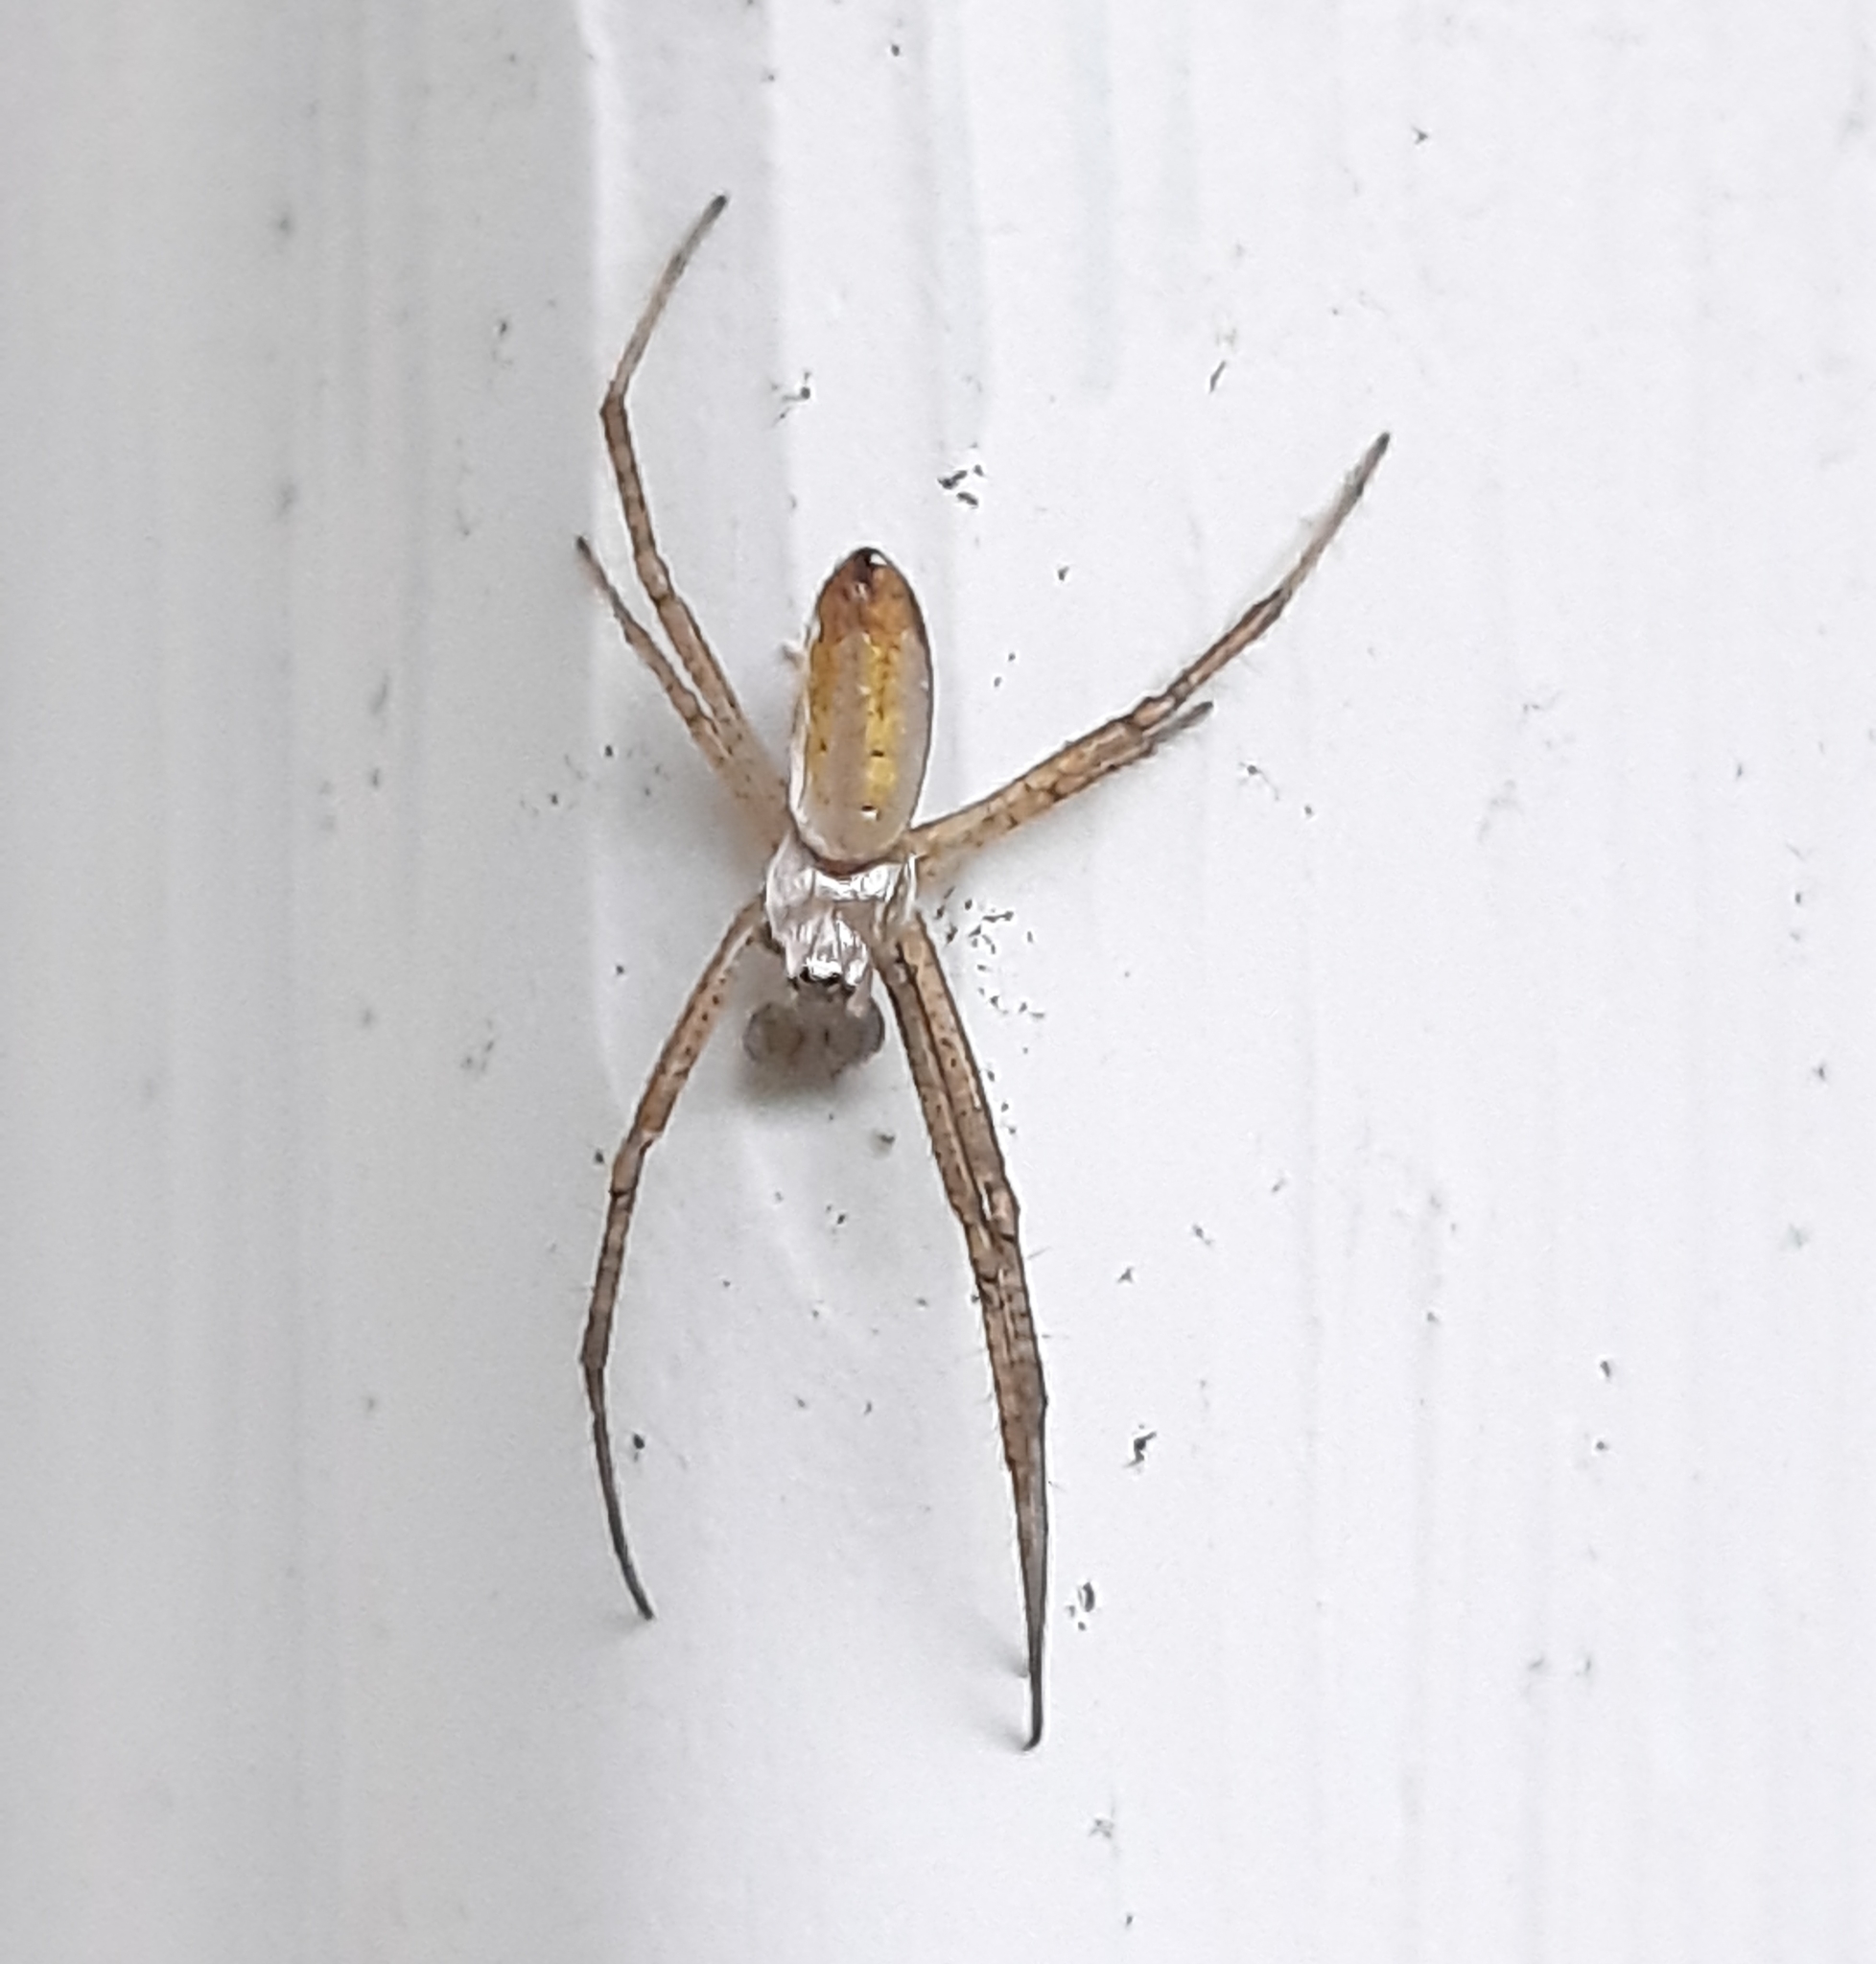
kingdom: Animalia
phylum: Arthropoda
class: Arachnida
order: Araneae
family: Araneidae
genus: Argiope
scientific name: Argiope trifasciata
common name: Banded garden spider
